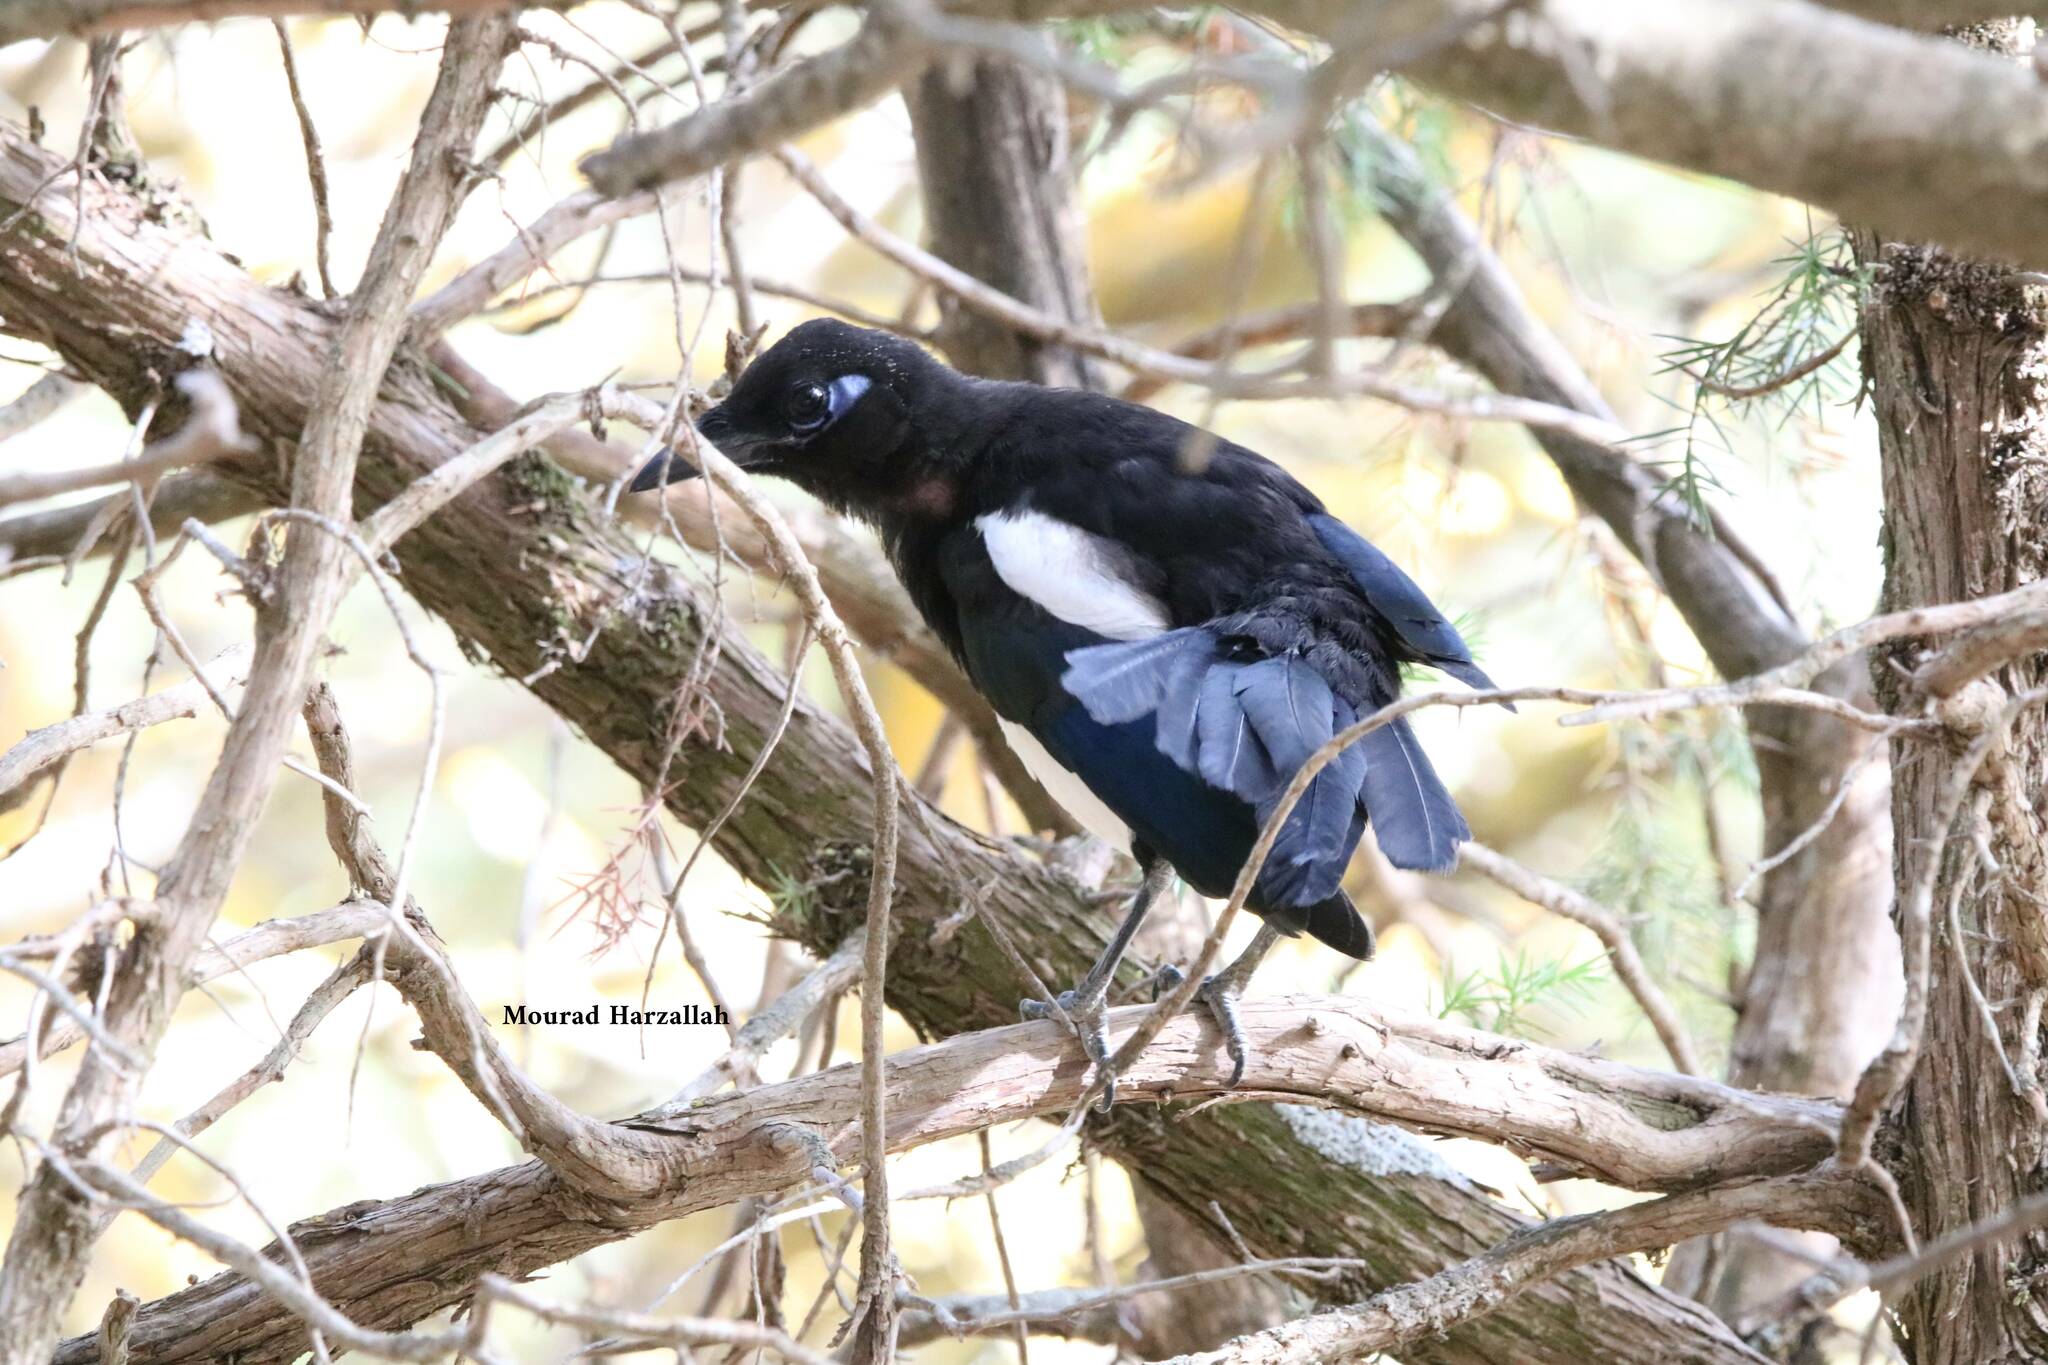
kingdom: Animalia
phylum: Chordata
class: Aves
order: Passeriformes
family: Corvidae
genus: Pica
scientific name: Pica mauritanica
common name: Maghreb magpie
